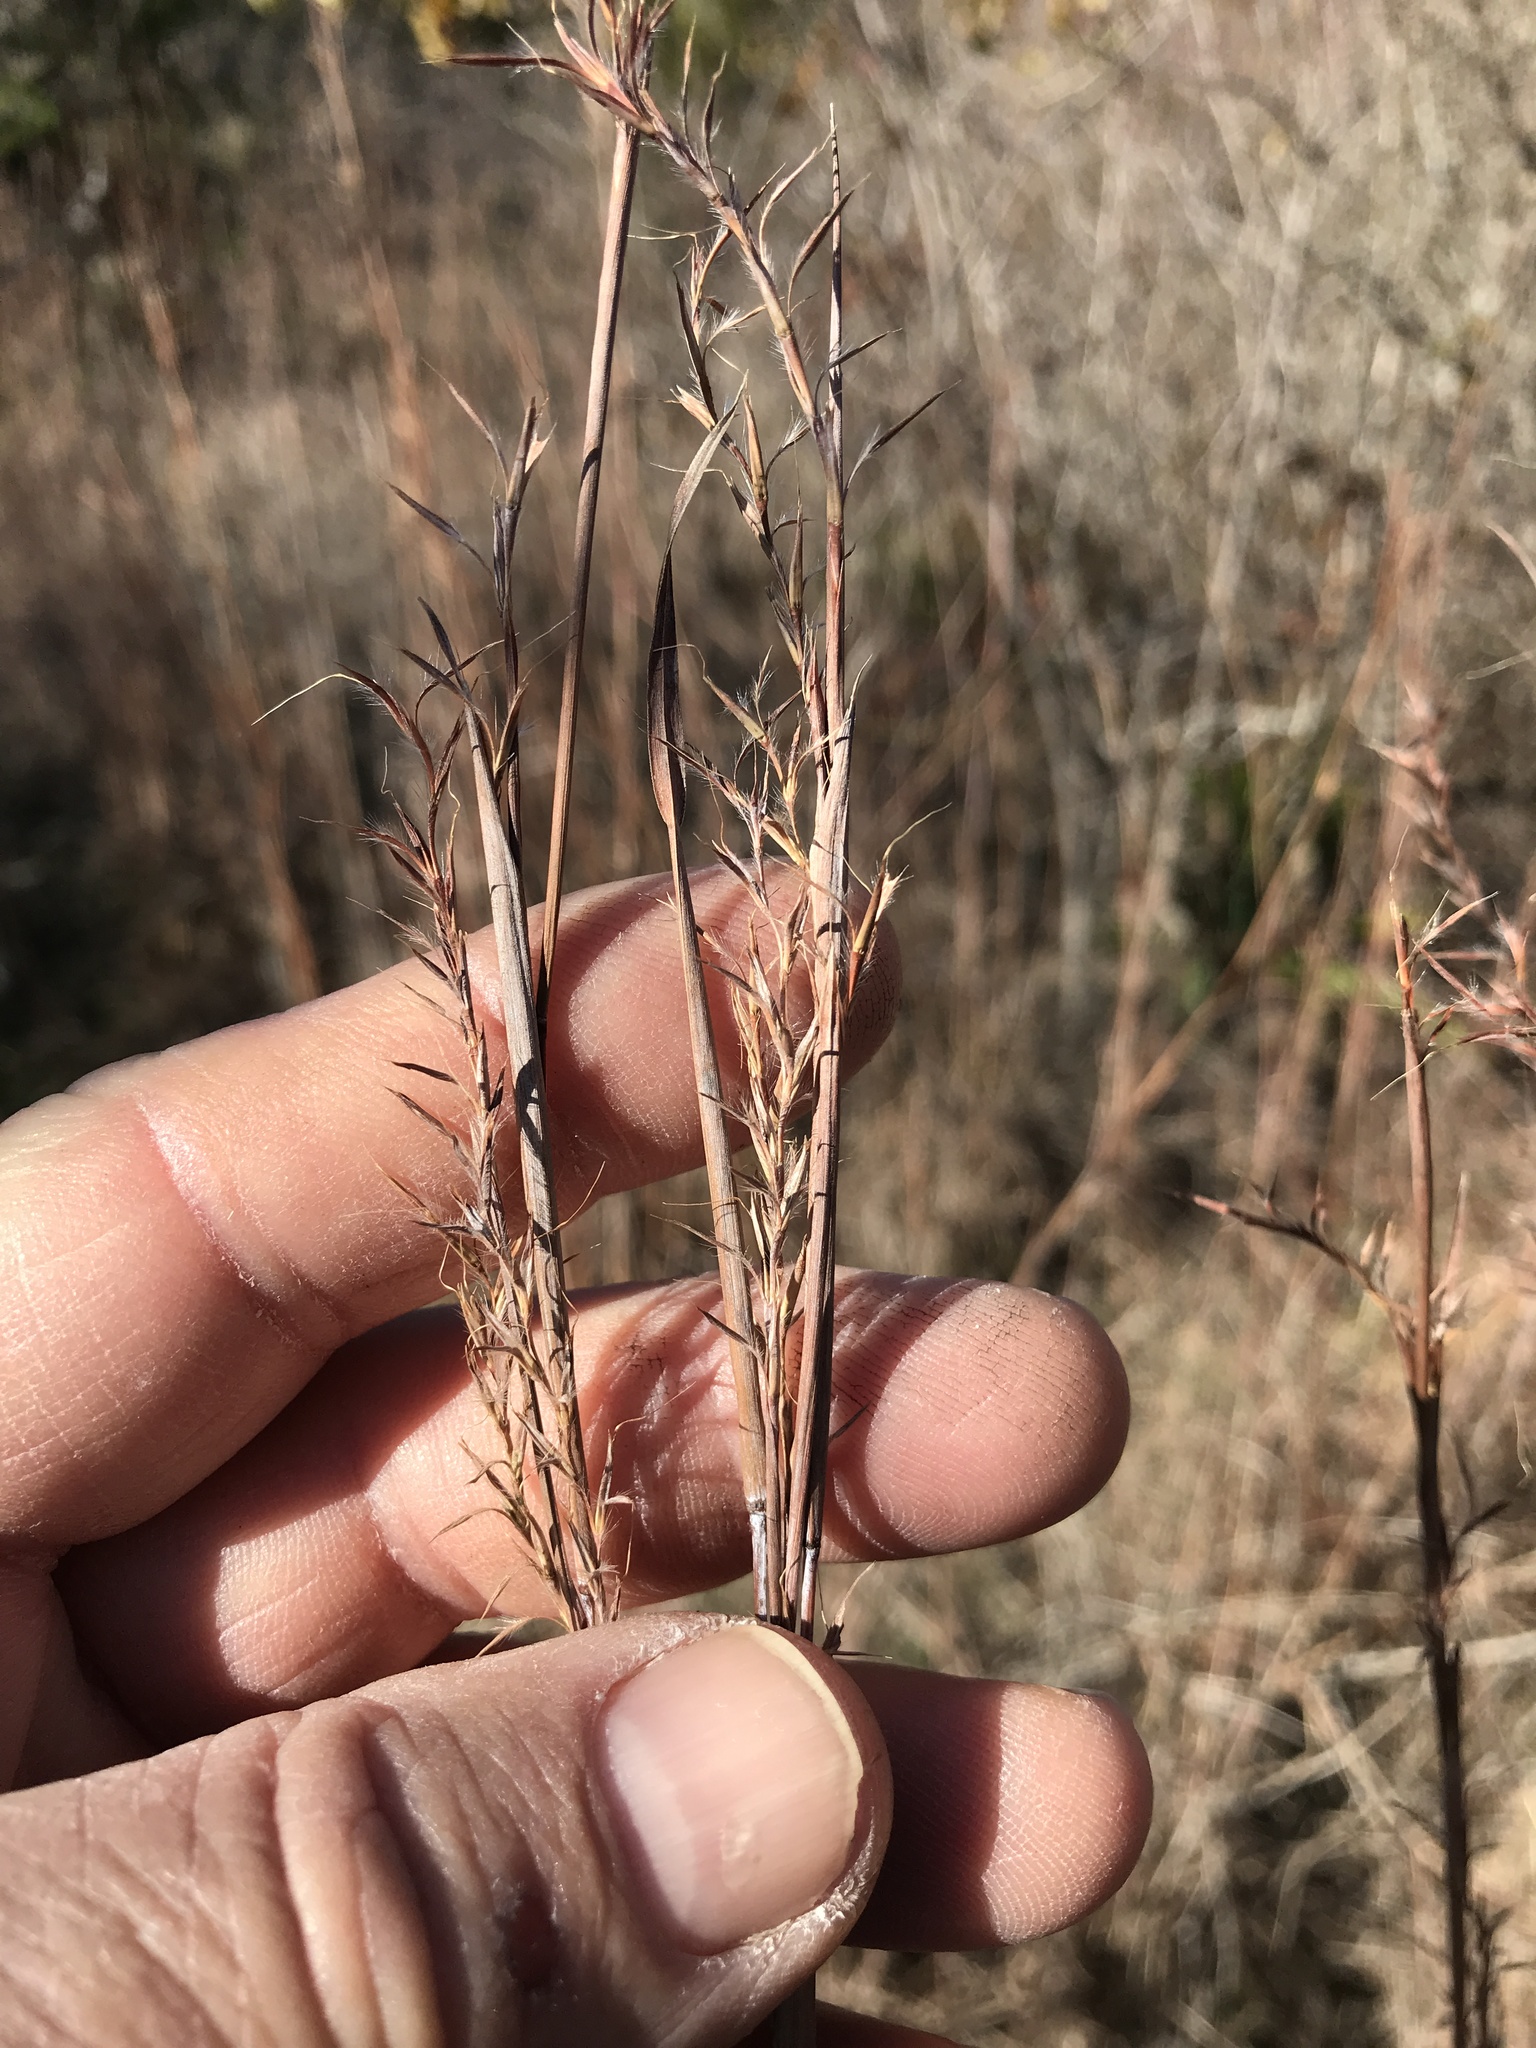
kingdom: Plantae
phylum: Tracheophyta
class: Liliopsida
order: Poales
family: Poaceae
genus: Schizachyrium
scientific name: Schizachyrium scoparium
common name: Little bluestem
